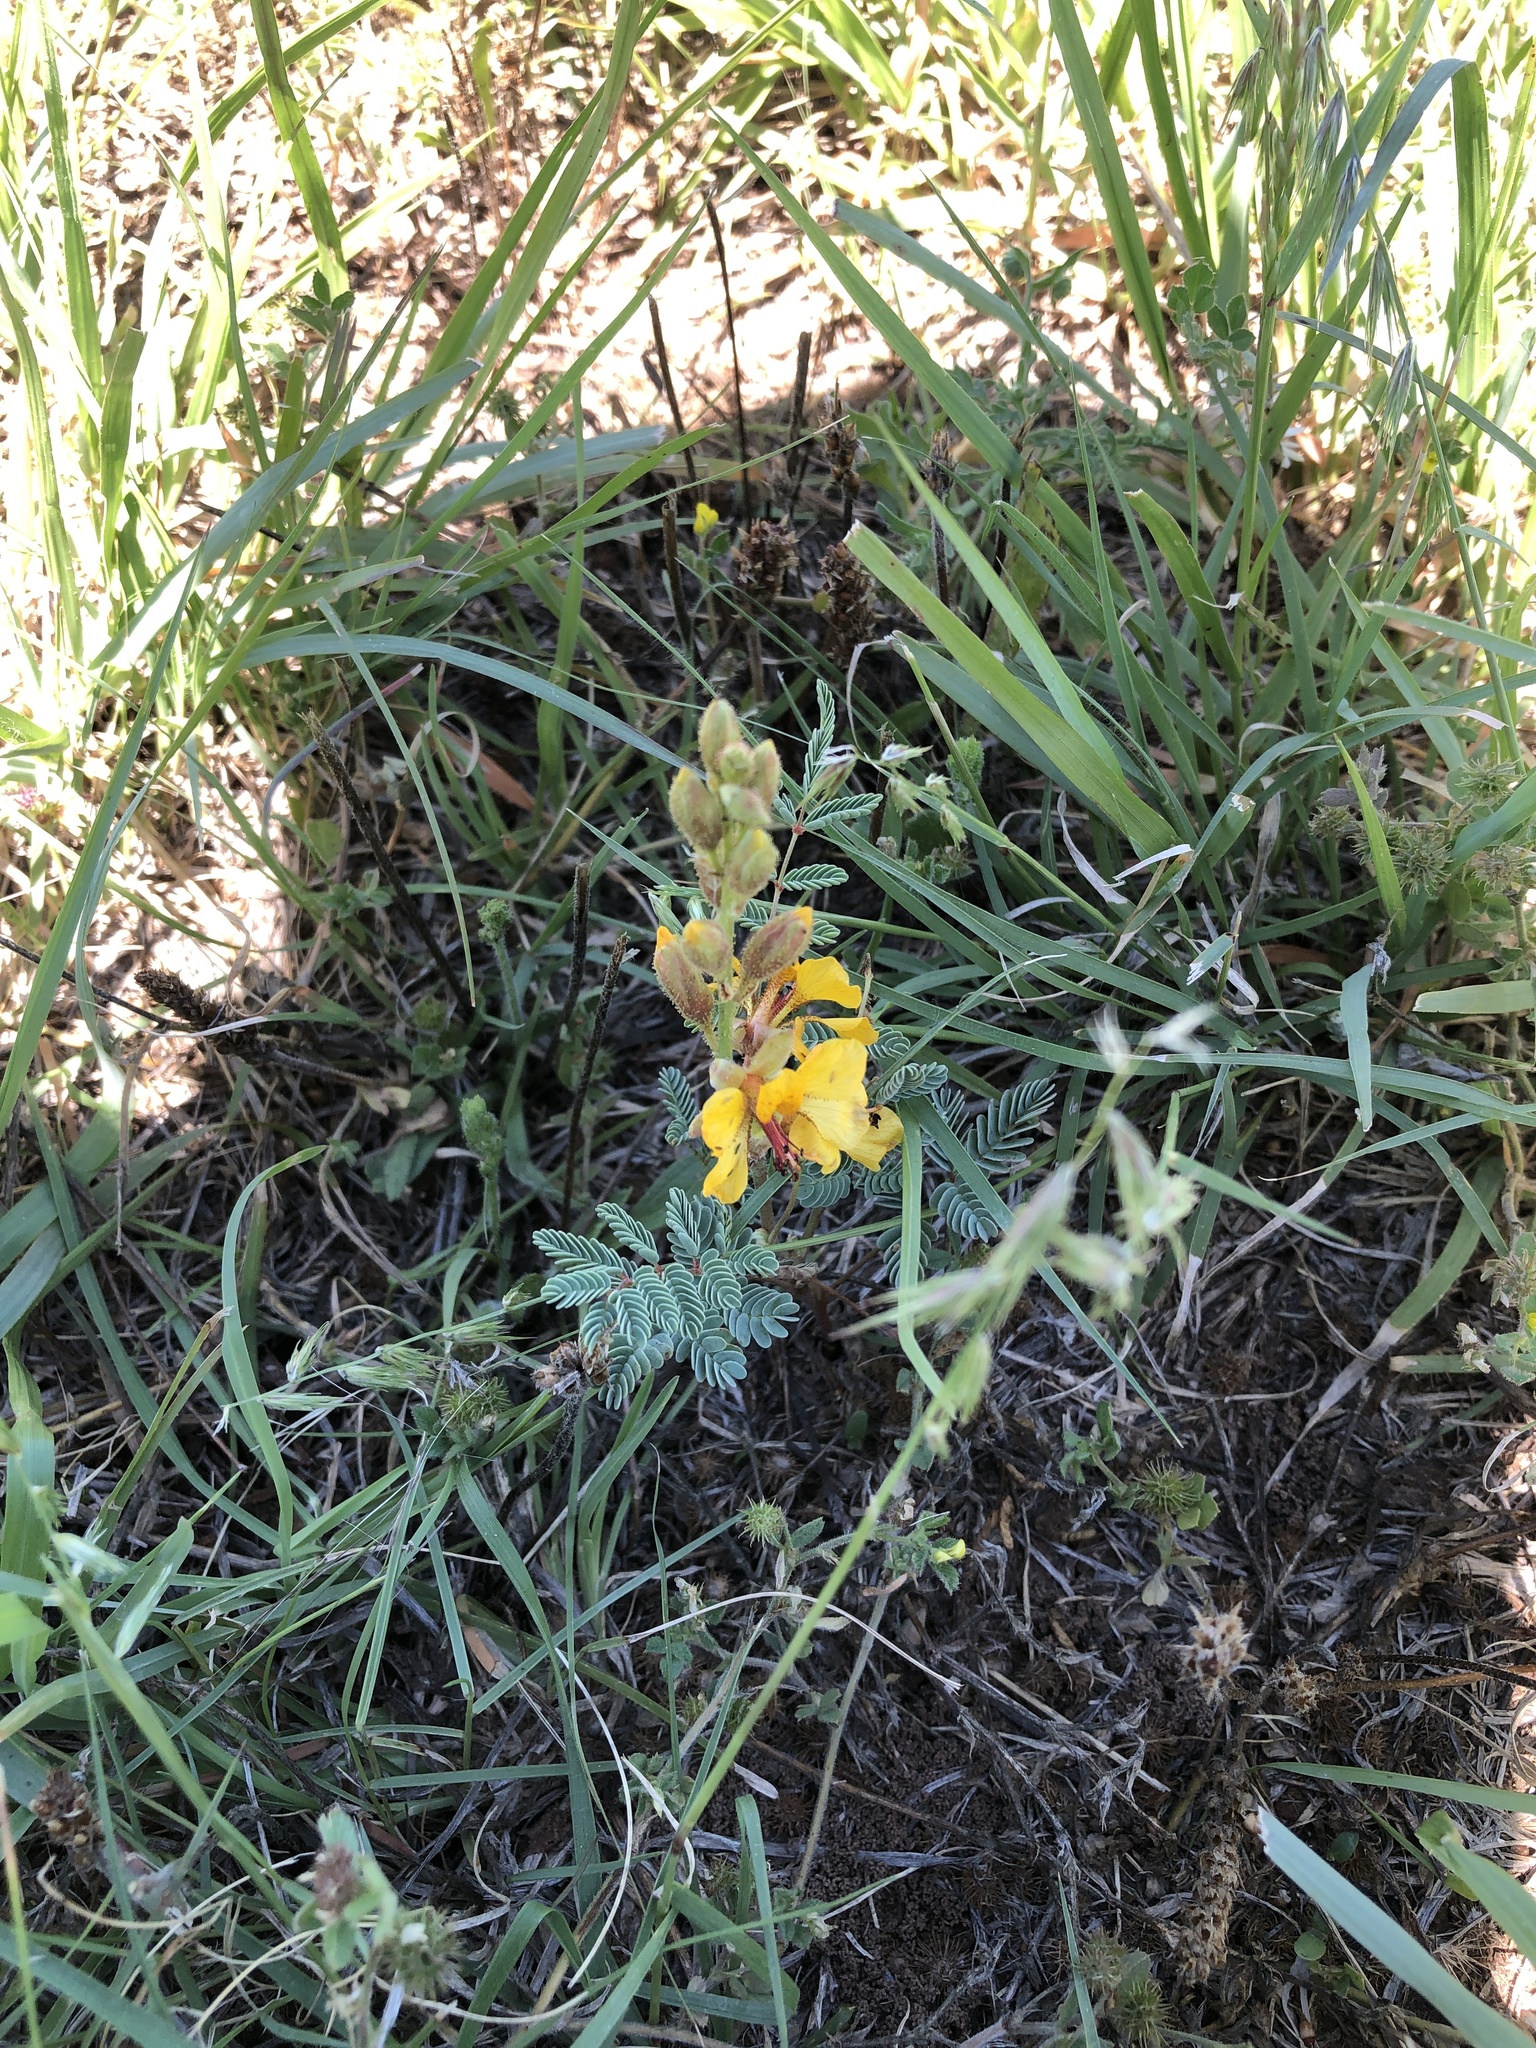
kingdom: Plantae
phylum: Tracheophyta
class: Magnoliopsida
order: Fabales
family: Fabaceae
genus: Hoffmannseggia
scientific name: Hoffmannseggia glauca
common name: Pignut
